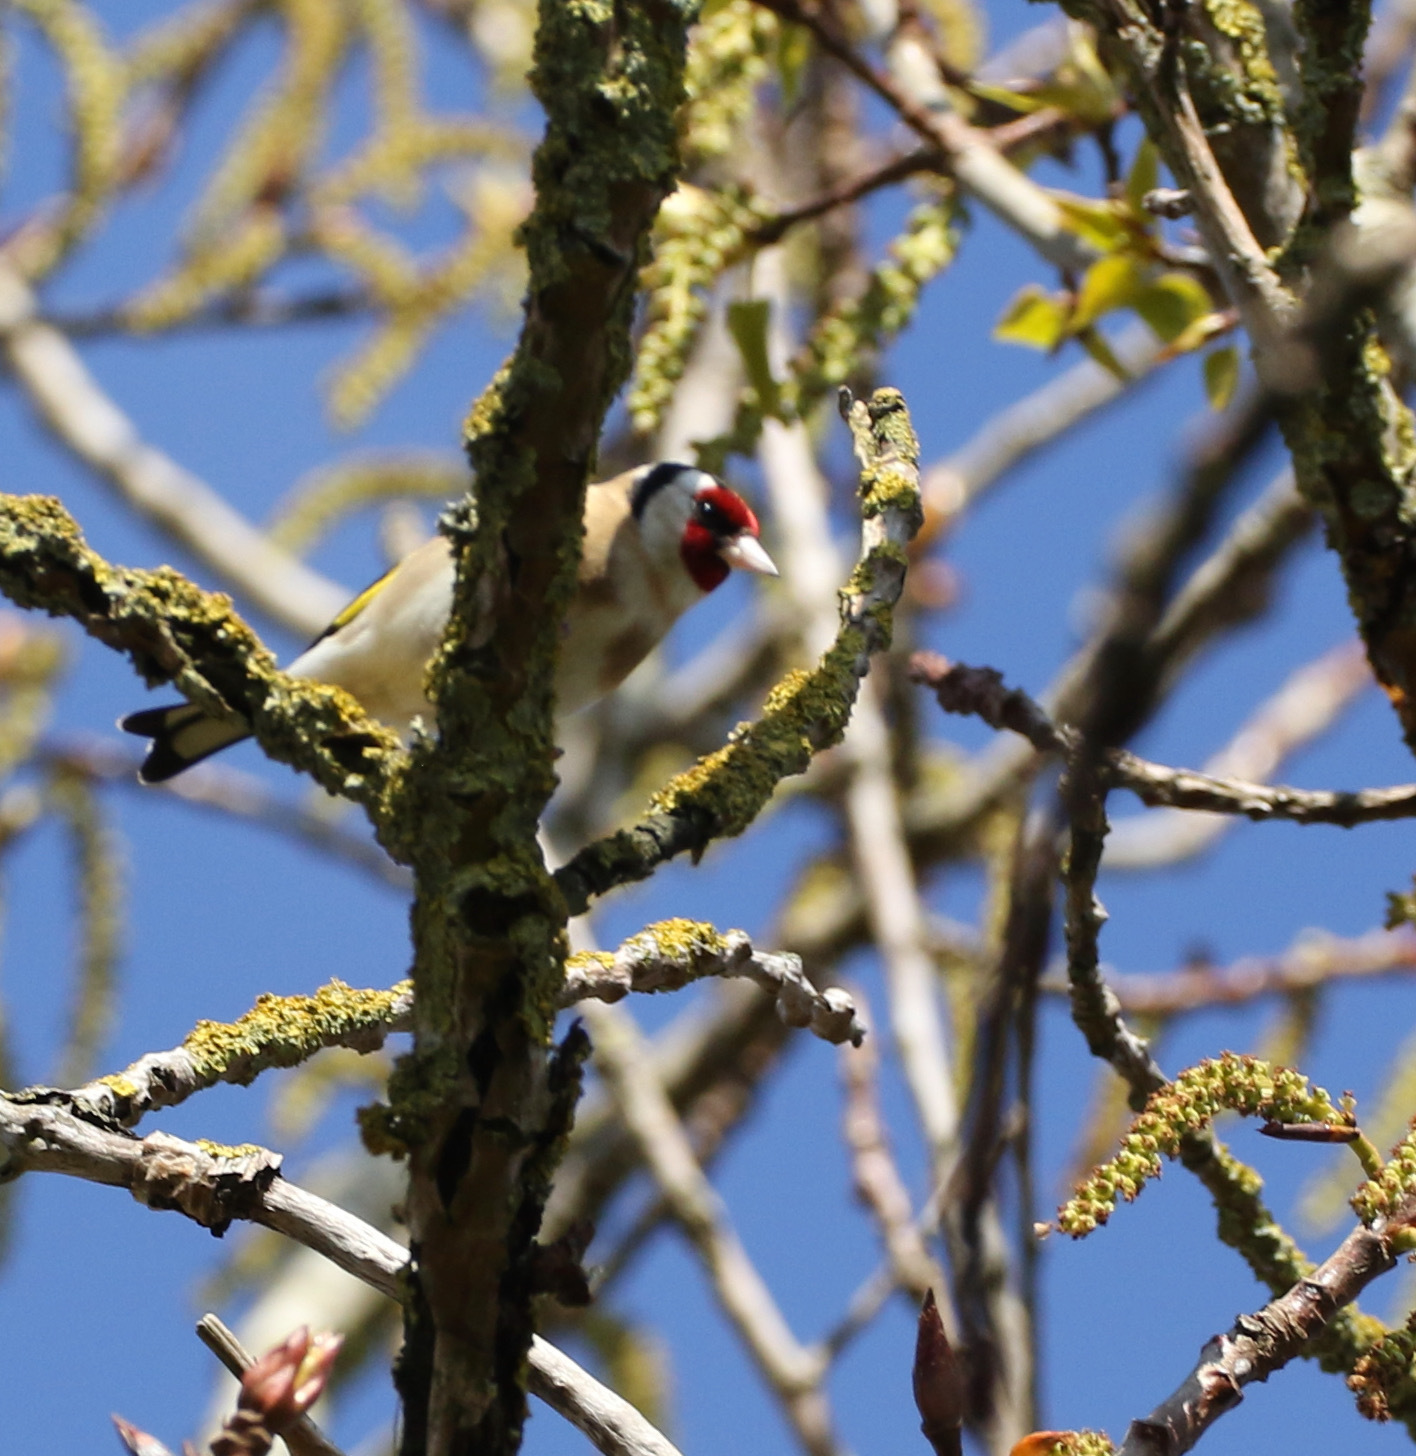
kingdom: Animalia
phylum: Chordata
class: Aves
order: Passeriformes
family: Fringillidae
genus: Carduelis
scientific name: Carduelis carduelis
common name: European goldfinch
